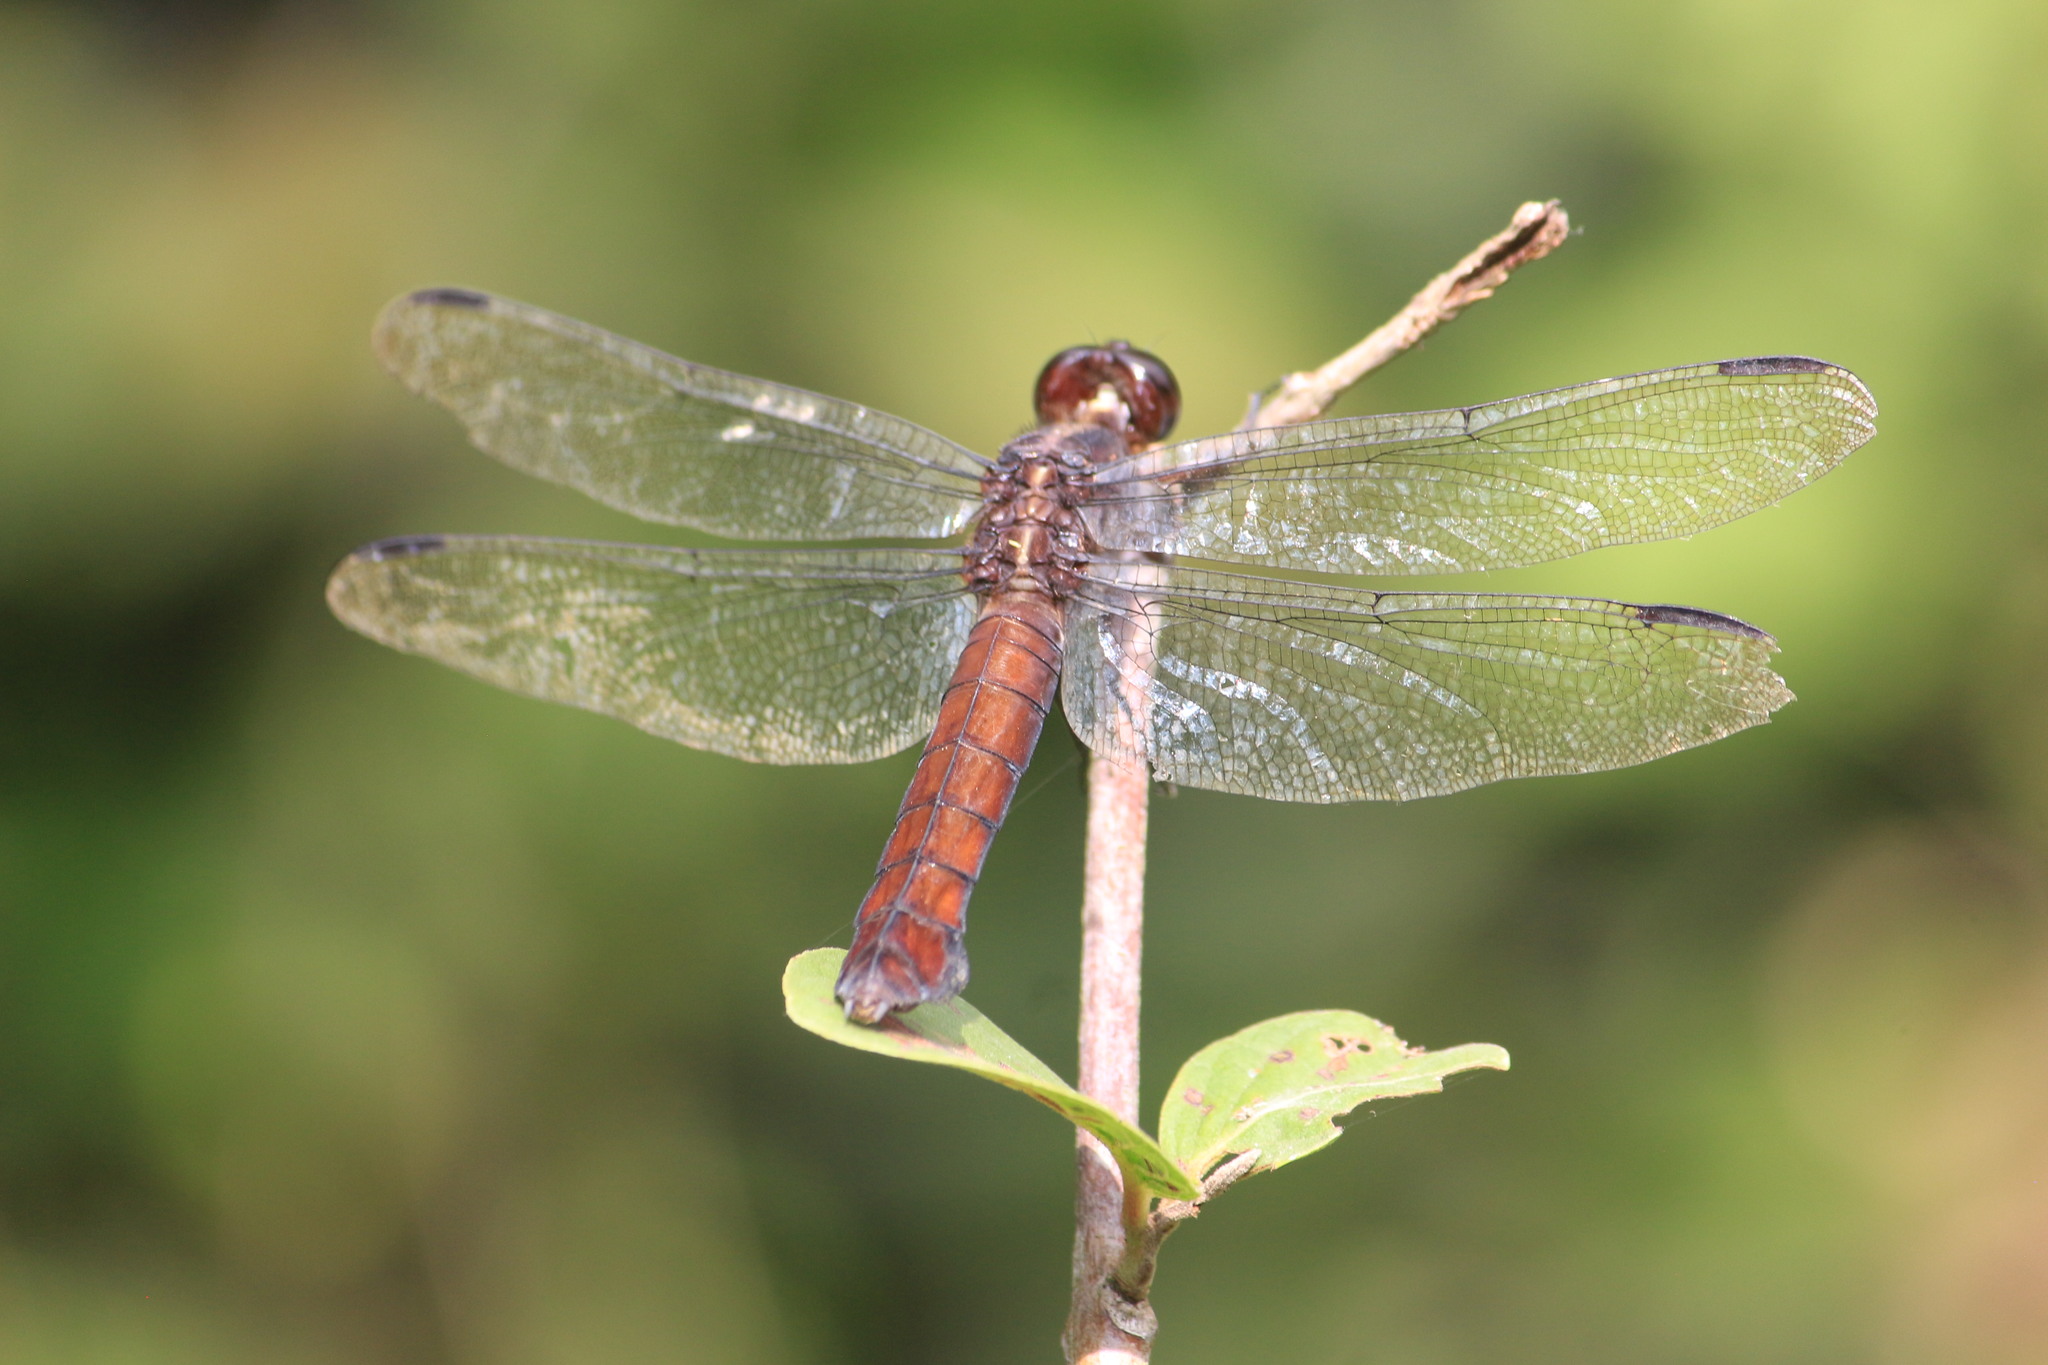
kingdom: Animalia
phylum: Arthropoda
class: Insecta
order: Odonata
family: Libellulidae
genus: Libellula
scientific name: Libellula herculea
